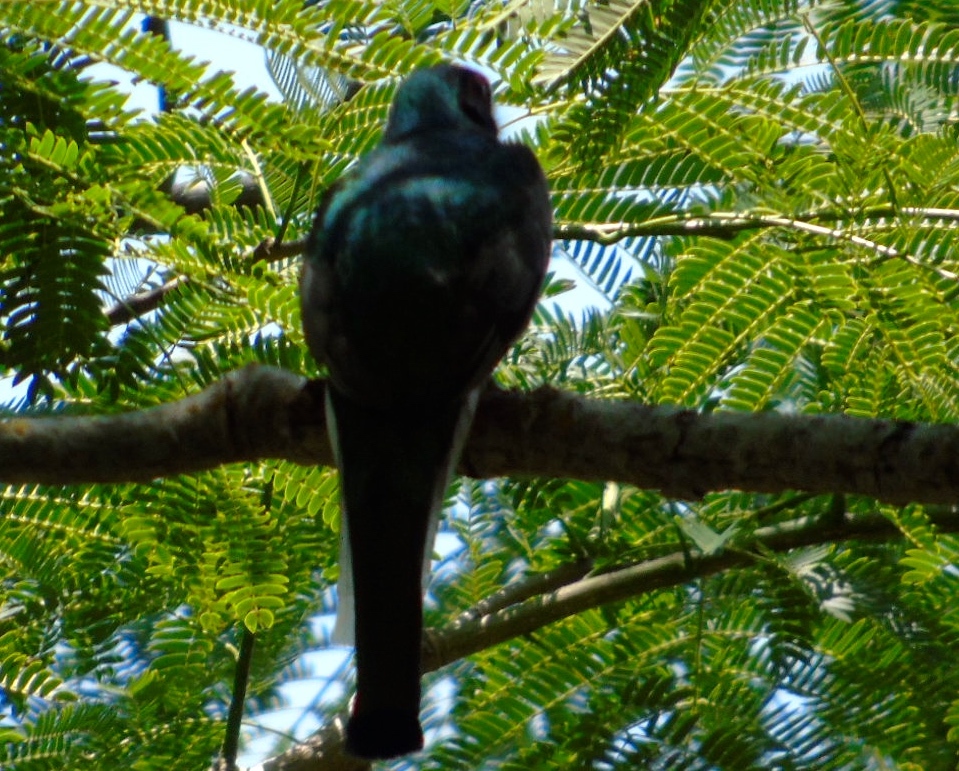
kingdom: Animalia
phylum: Chordata
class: Aves
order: Trogoniformes
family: Trogonidae
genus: Trogon
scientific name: Trogon elegans
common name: Elegant trogon
